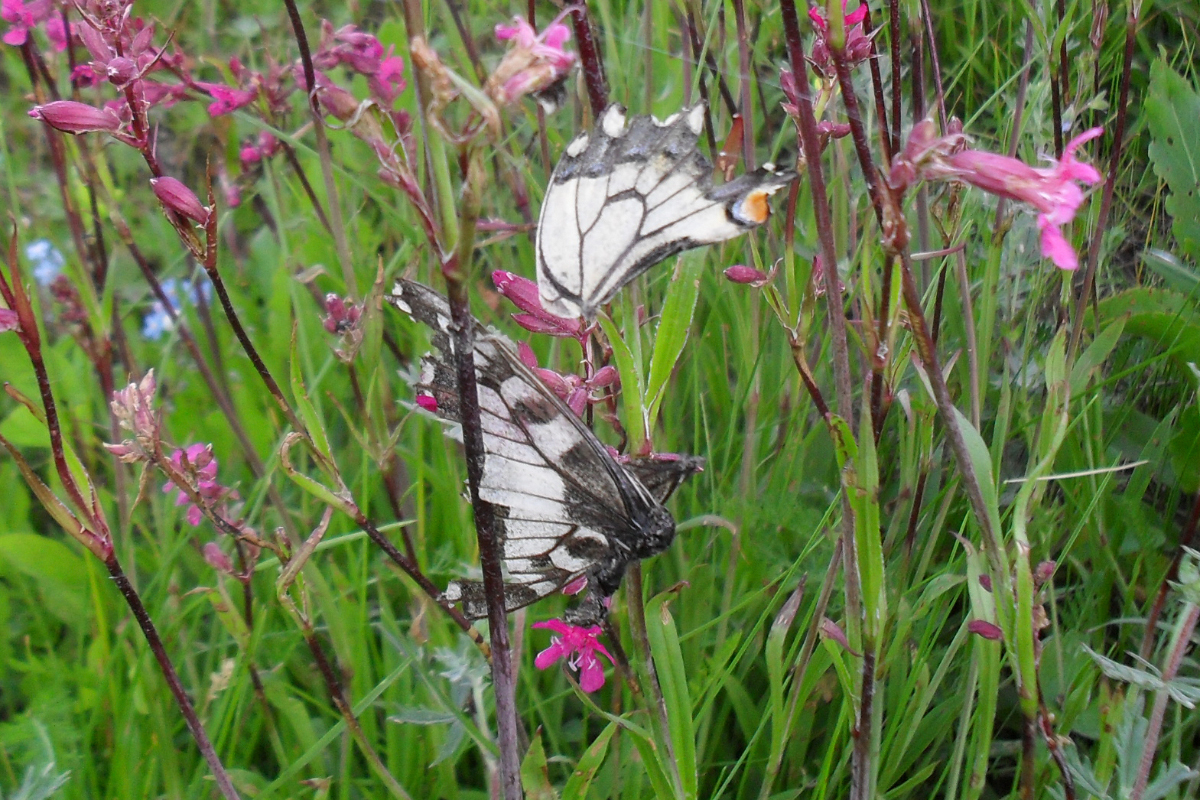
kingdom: Animalia
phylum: Arthropoda
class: Insecta
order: Lepidoptera
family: Papilionidae
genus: Papilio
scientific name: Papilio machaon
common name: Swallowtail
